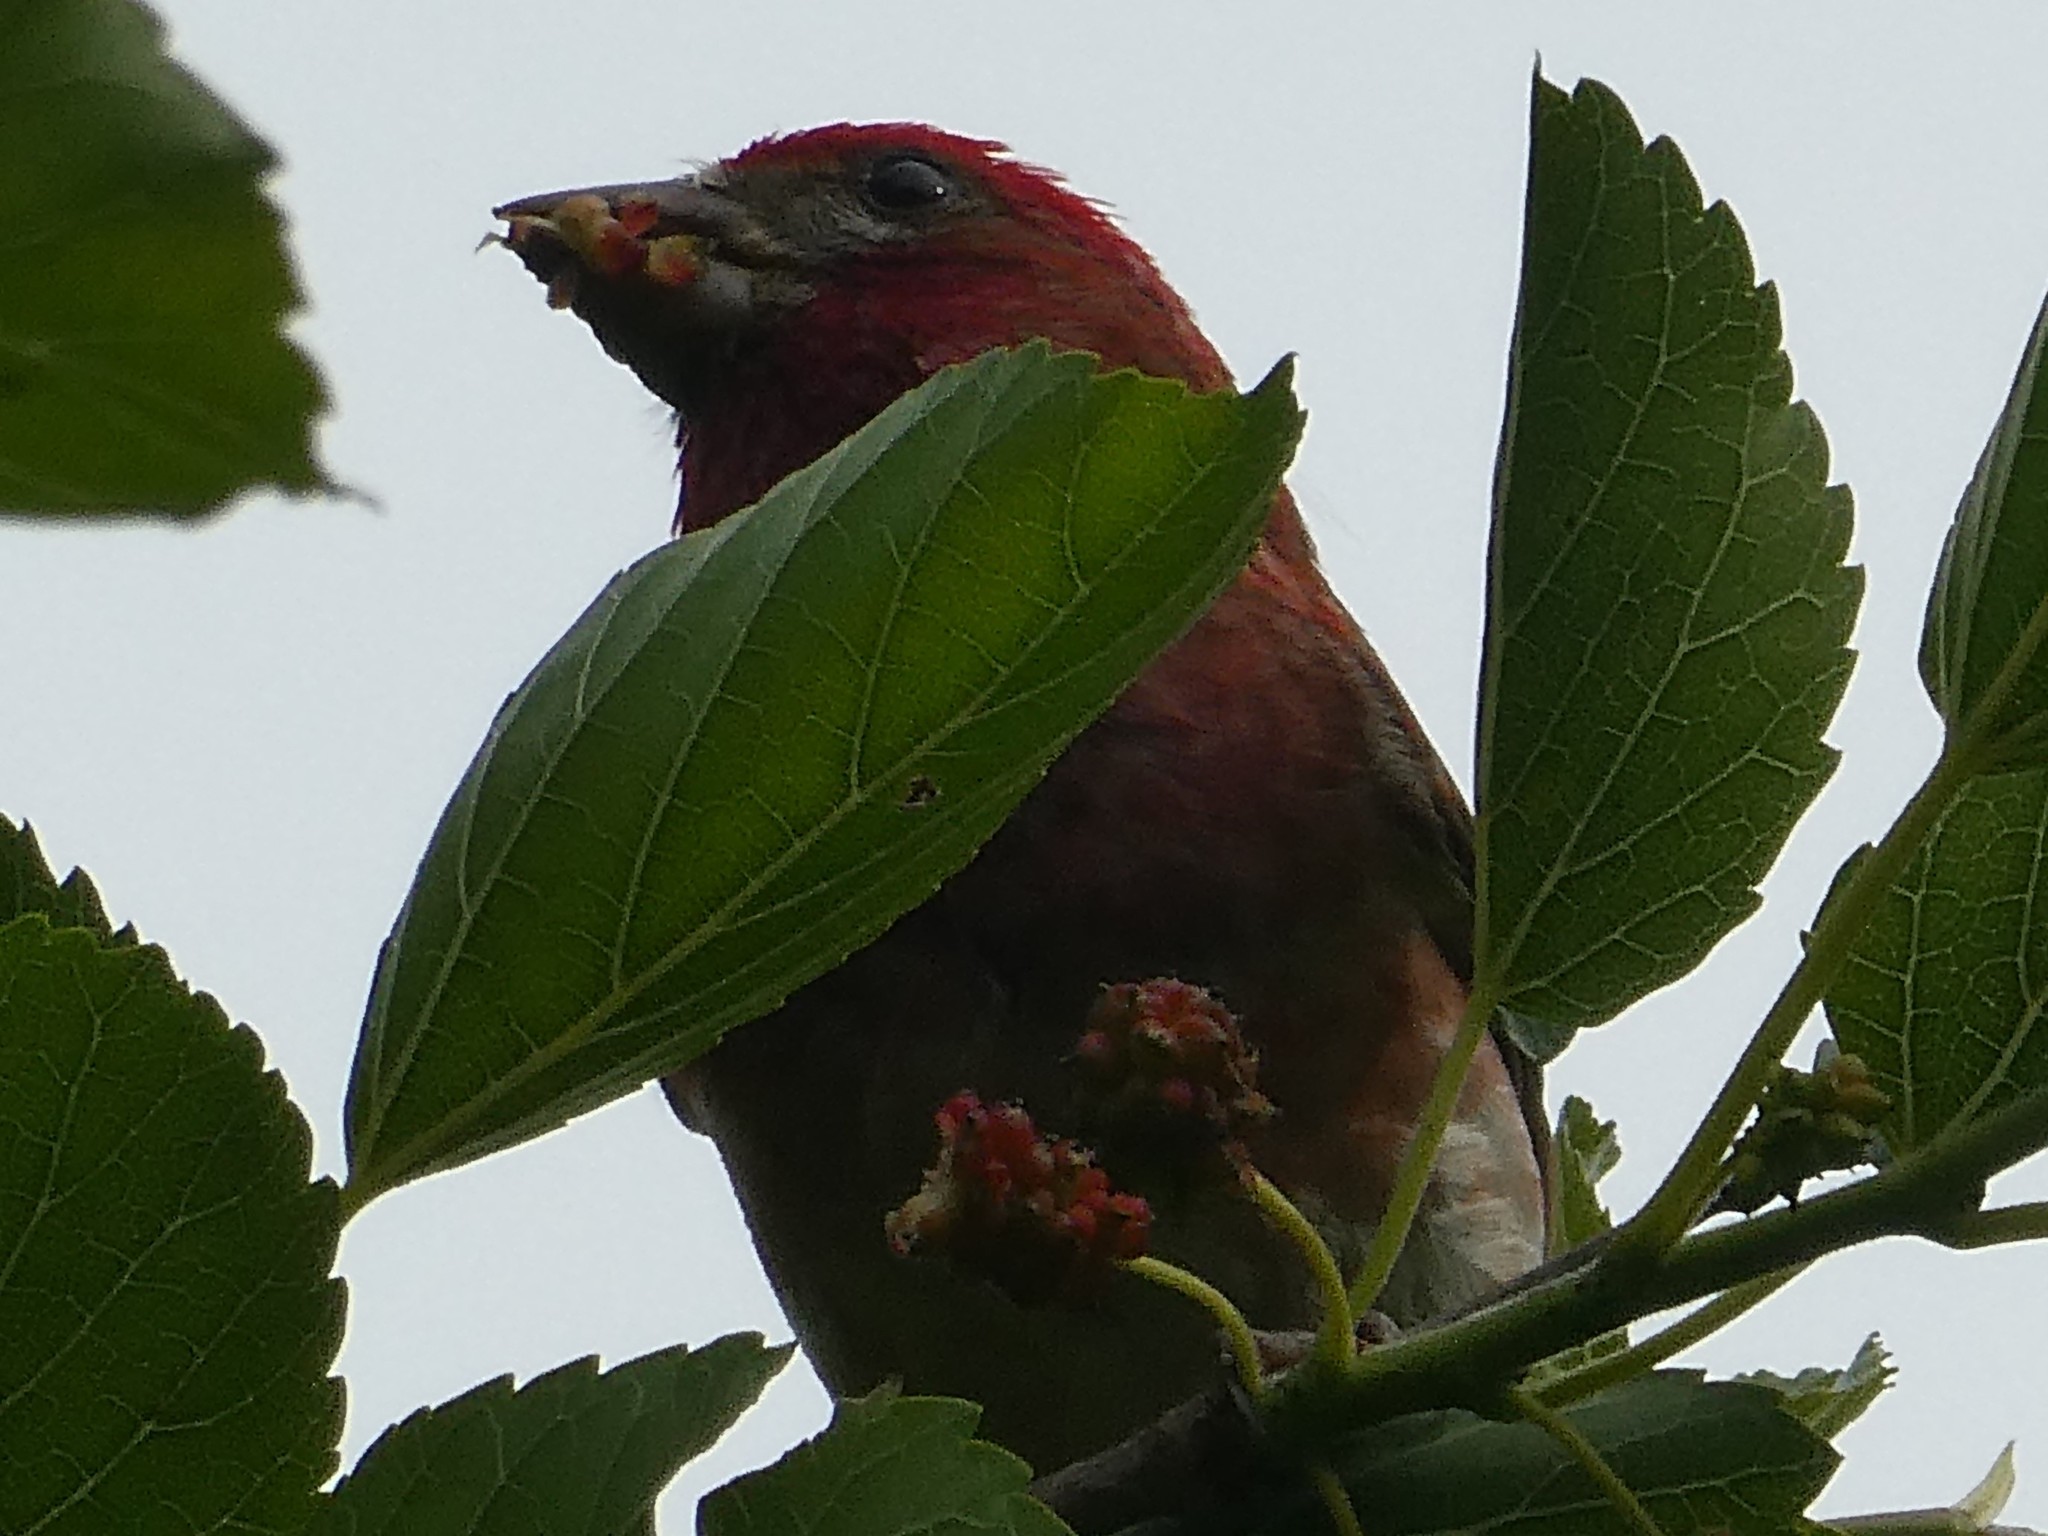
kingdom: Animalia
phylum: Chordata
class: Aves
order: Passeriformes
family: Fringillidae
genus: Haemorhous
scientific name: Haemorhous purpureus
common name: Purple finch
